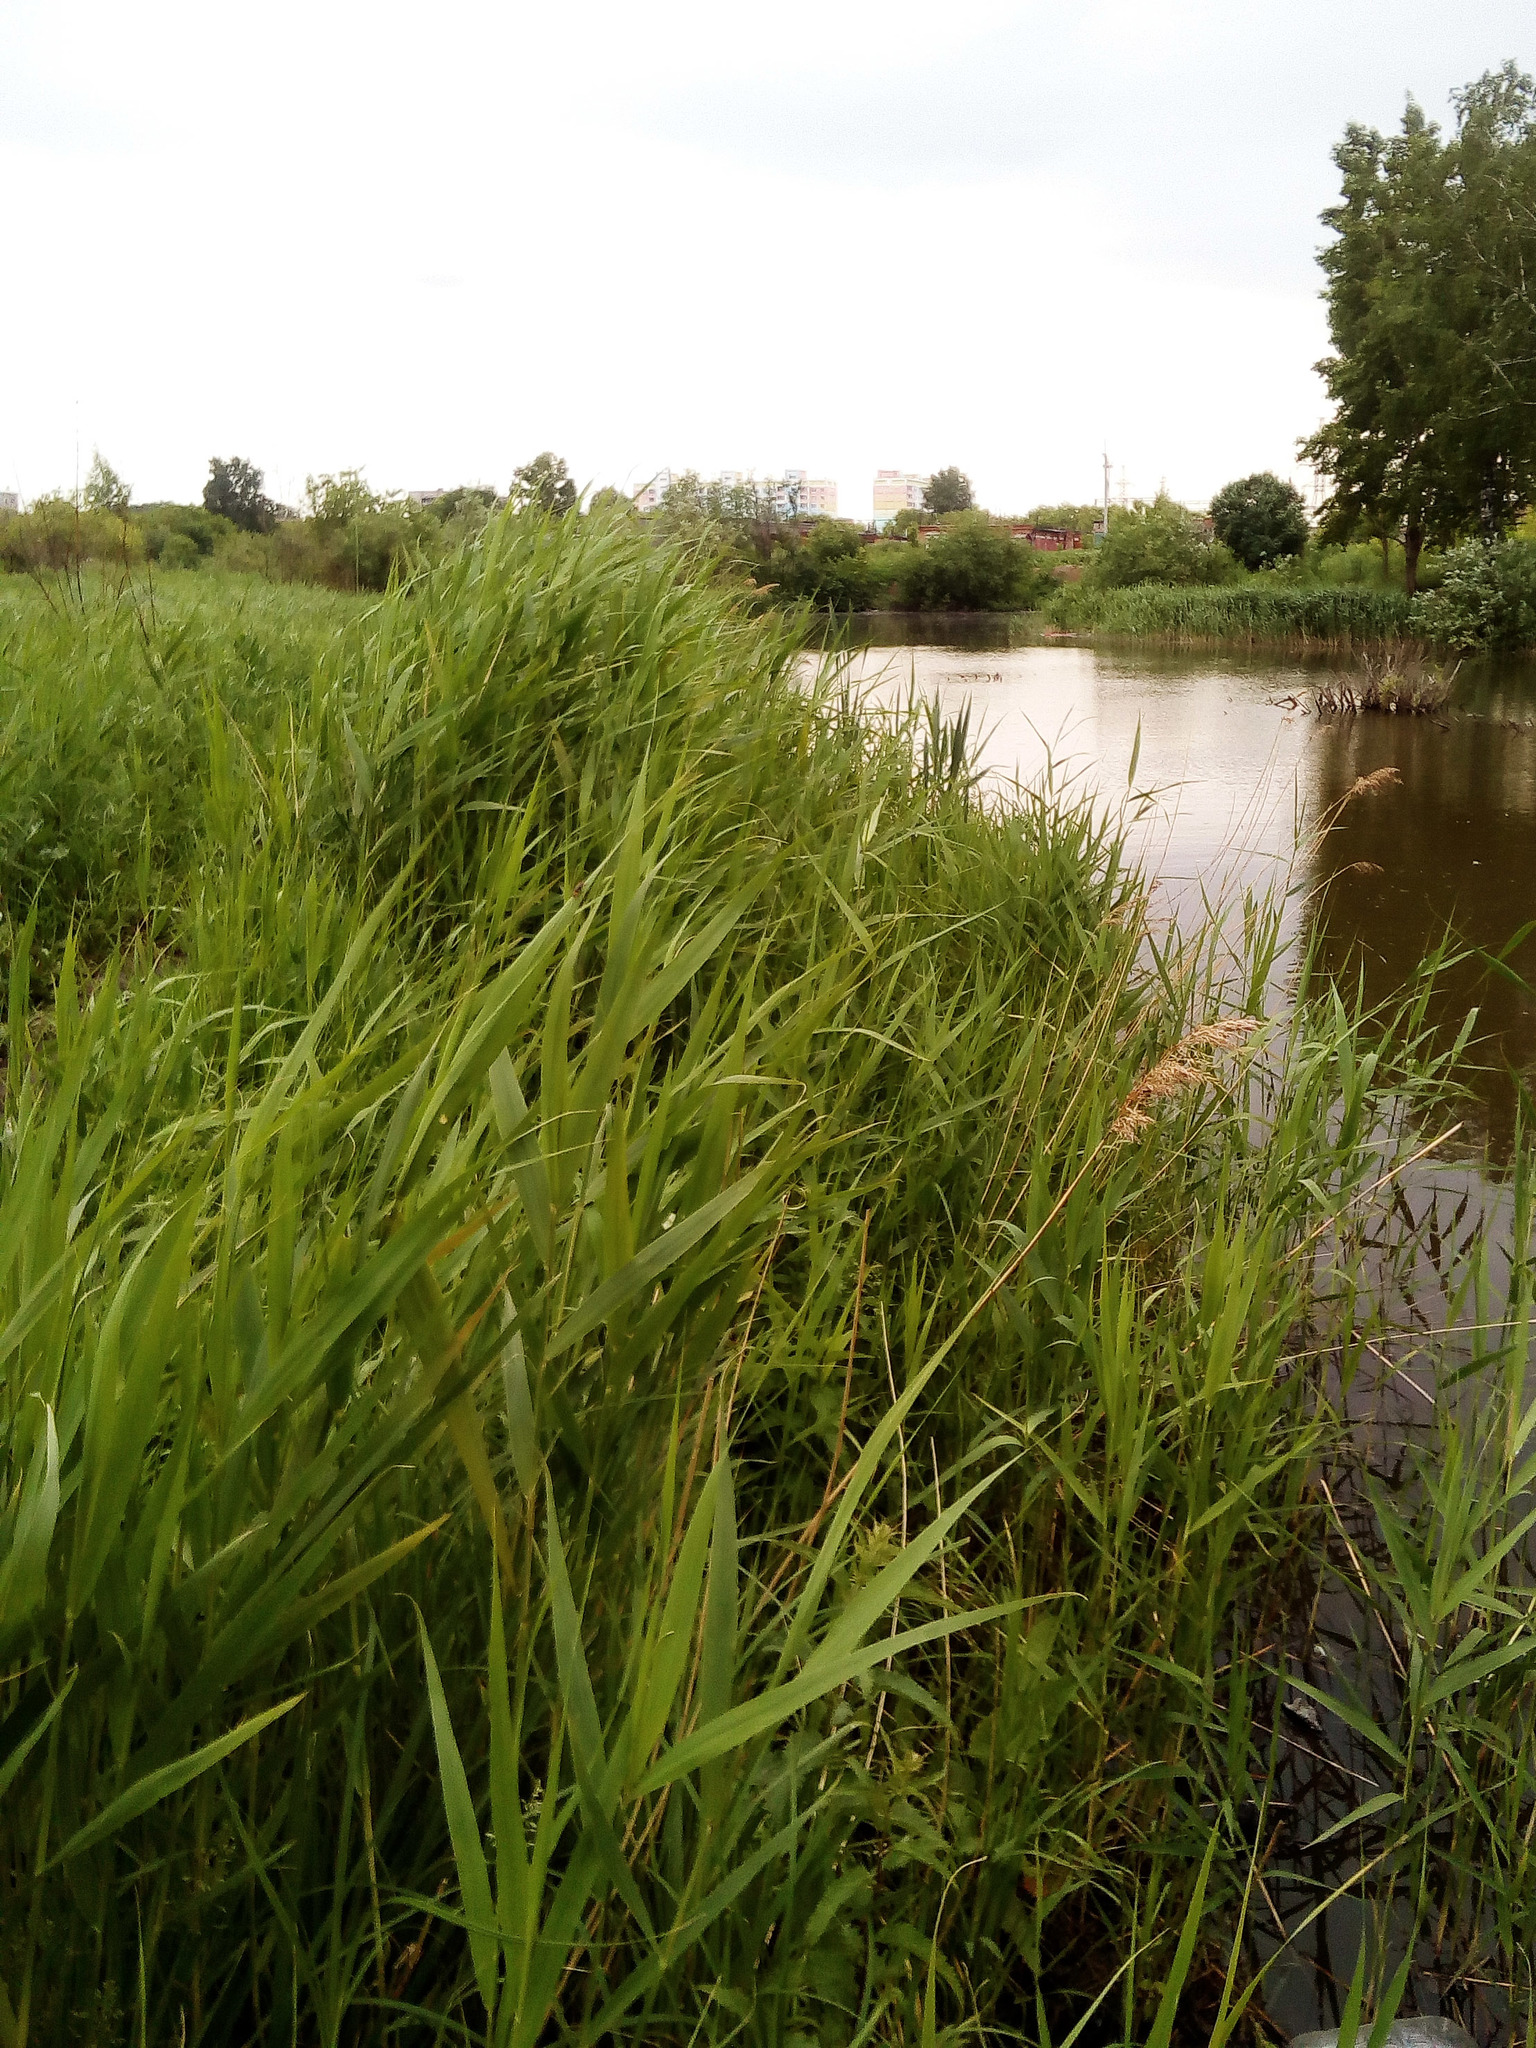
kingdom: Plantae
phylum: Tracheophyta
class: Liliopsida
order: Poales
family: Poaceae
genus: Phragmites
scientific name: Phragmites australis
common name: Common reed
